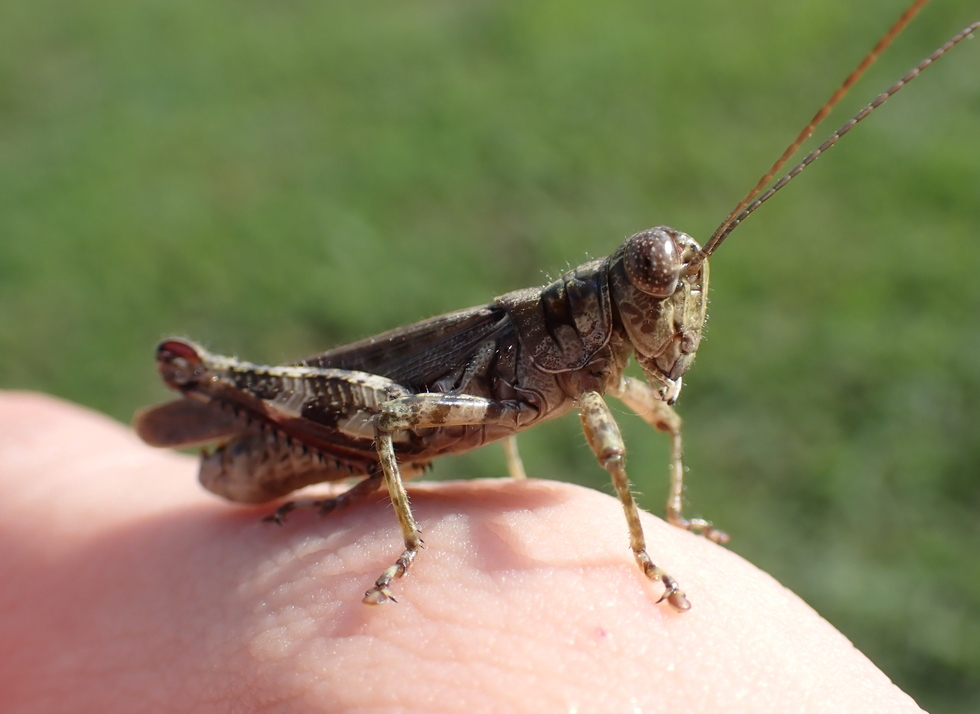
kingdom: Animalia
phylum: Arthropoda
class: Insecta
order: Orthoptera
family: Acrididae
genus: Melanoplus
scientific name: Melanoplus punctulatus
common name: Pine-tree spur-throat grasshopper
